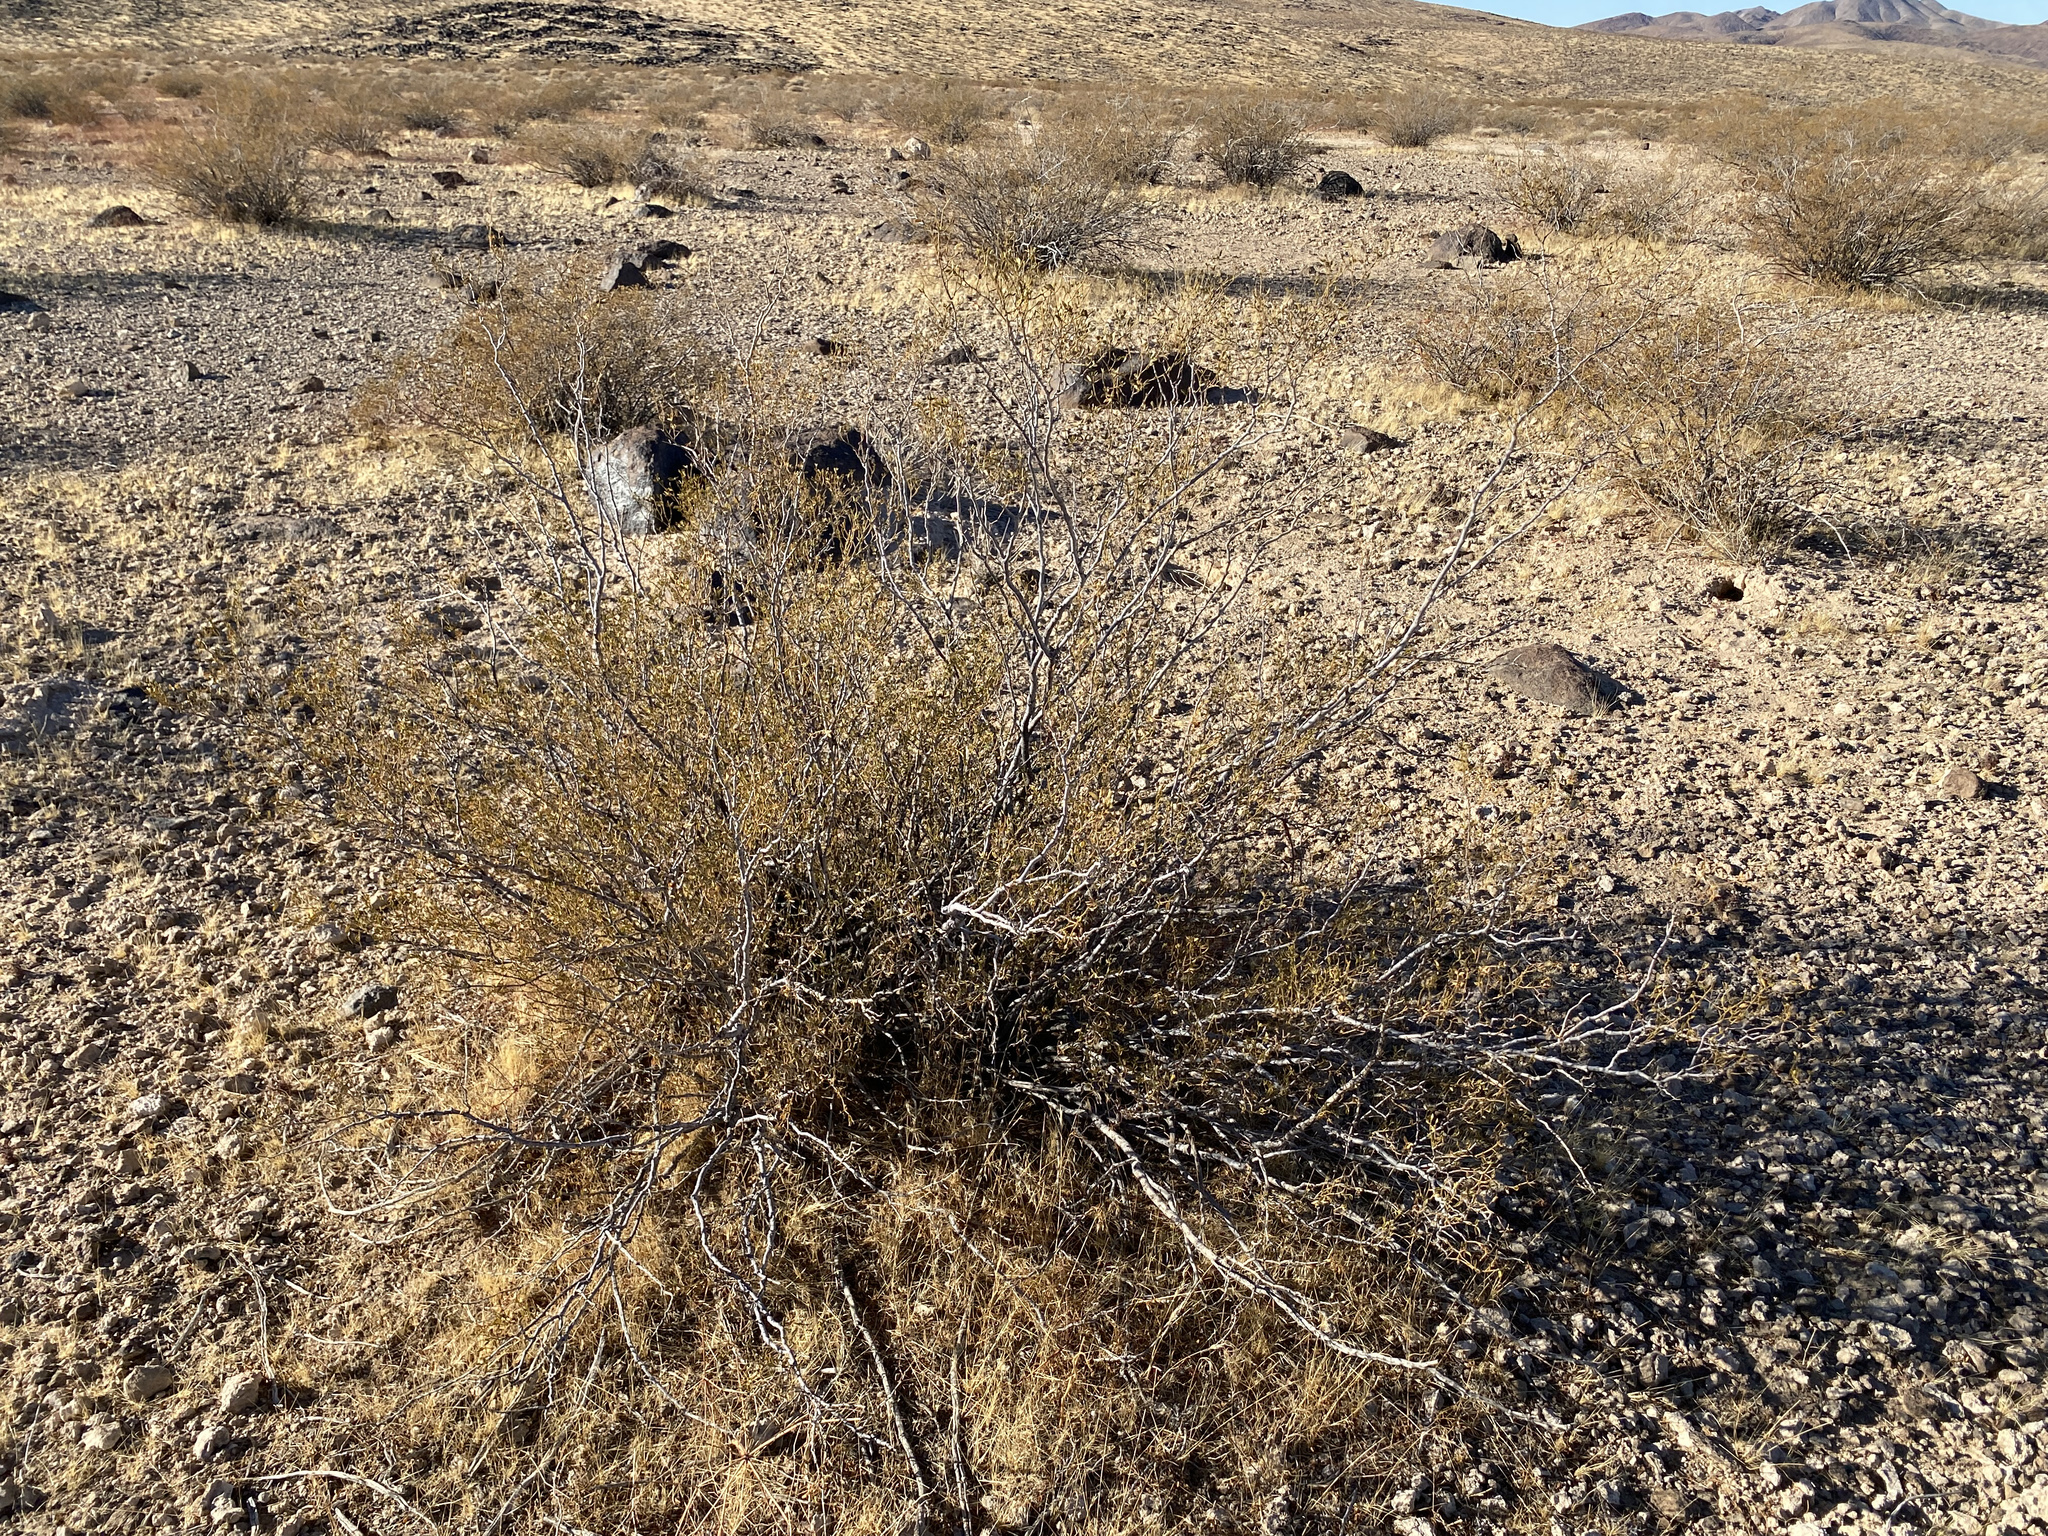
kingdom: Plantae
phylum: Tracheophyta
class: Magnoliopsida
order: Zygophyllales
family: Zygophyllaceae
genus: Larrea
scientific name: Larrea tridentata
